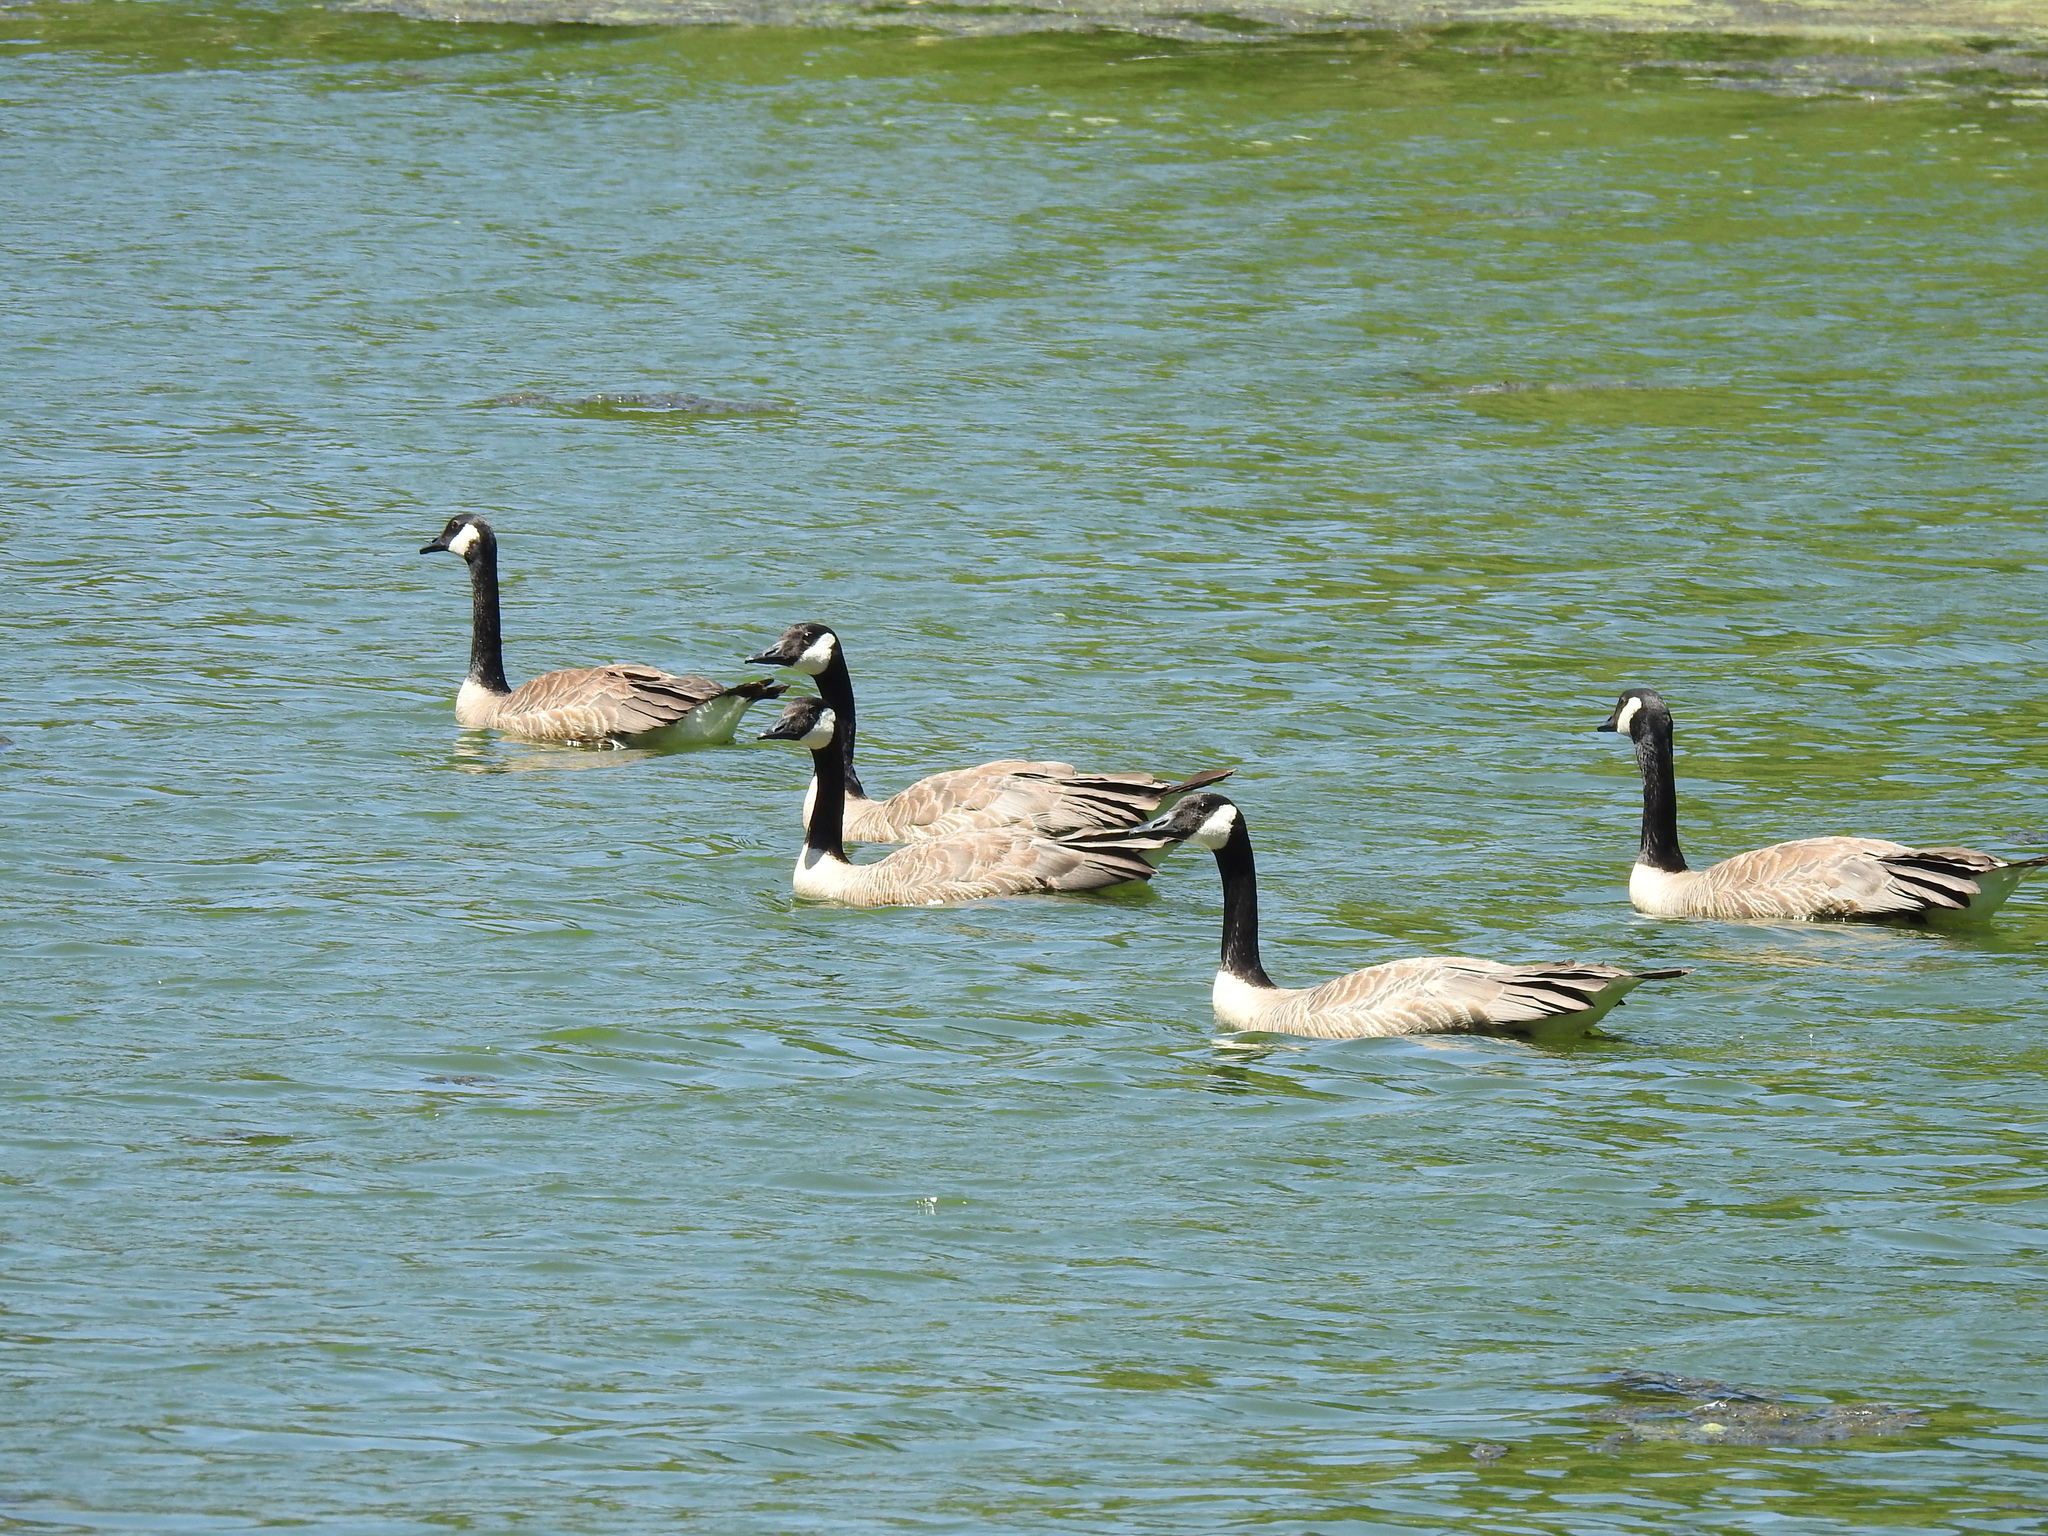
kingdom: Animalia
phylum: Chordata
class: Aves
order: Anseriformes
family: Anatidae
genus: Branta
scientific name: Branta canadensis
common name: Canada goose
